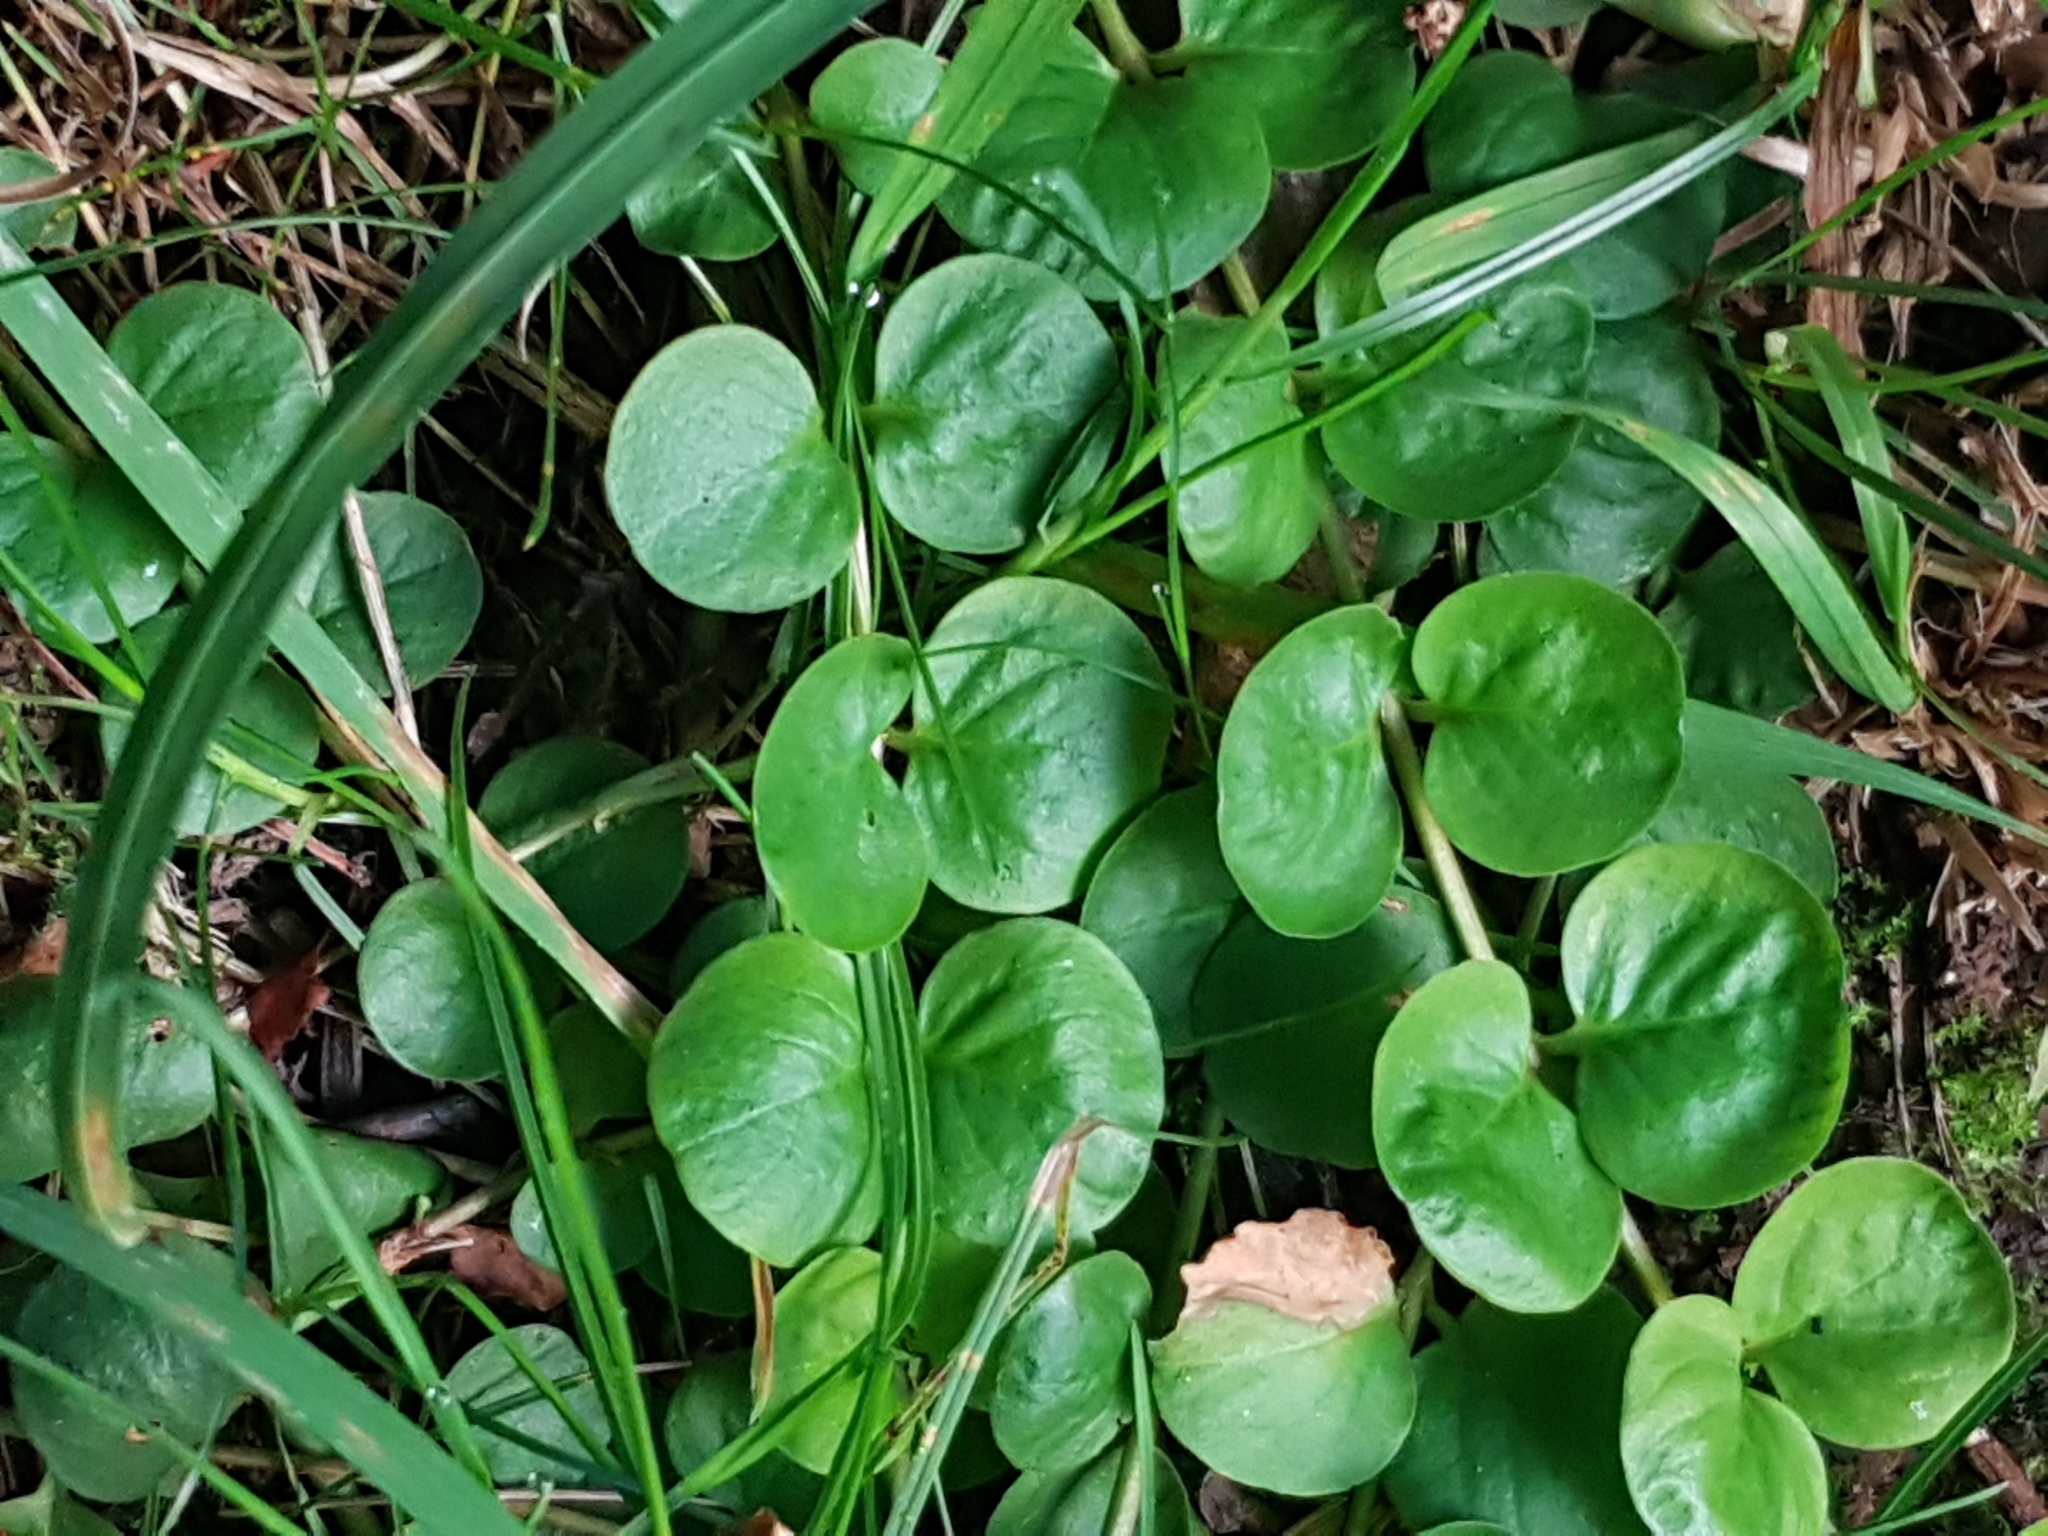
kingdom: Plantae
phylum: Tracheophyta
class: Magnoliopsida
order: Ericales
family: Primulaceae
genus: Lysimachia
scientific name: Lysimachia nummularia
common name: Moneywort
